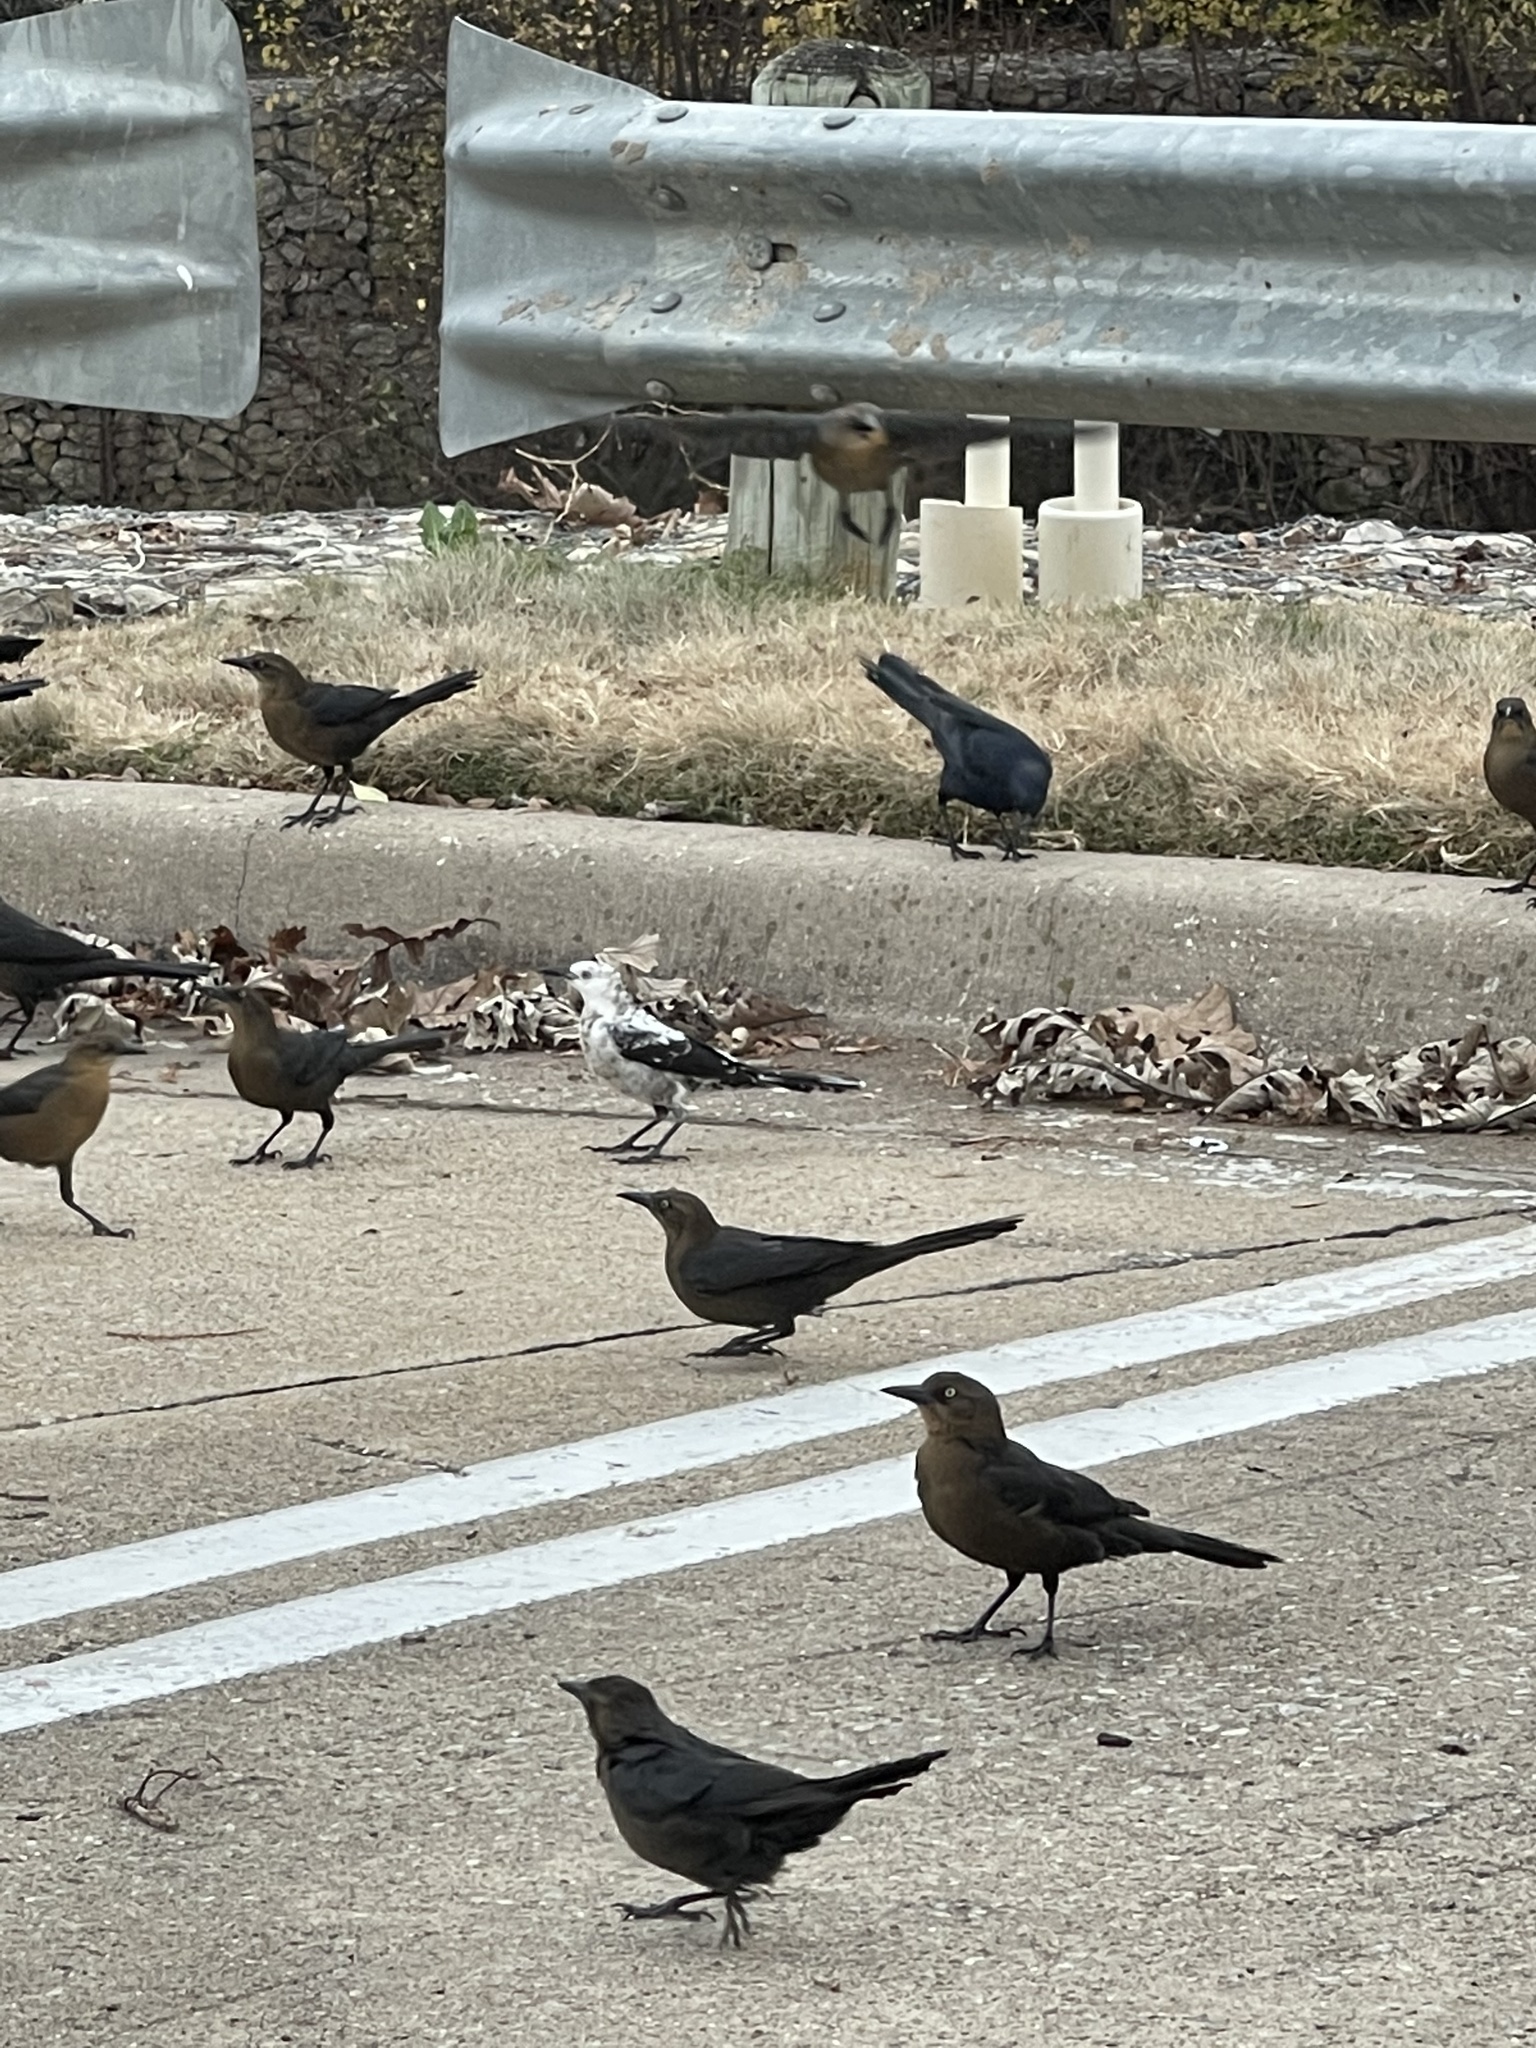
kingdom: Animalia
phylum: Chordata
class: Aves
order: Passeriformes
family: Icteridae
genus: Quiscalus
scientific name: Quiscalus mexicanus
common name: Great-tailed grackle
